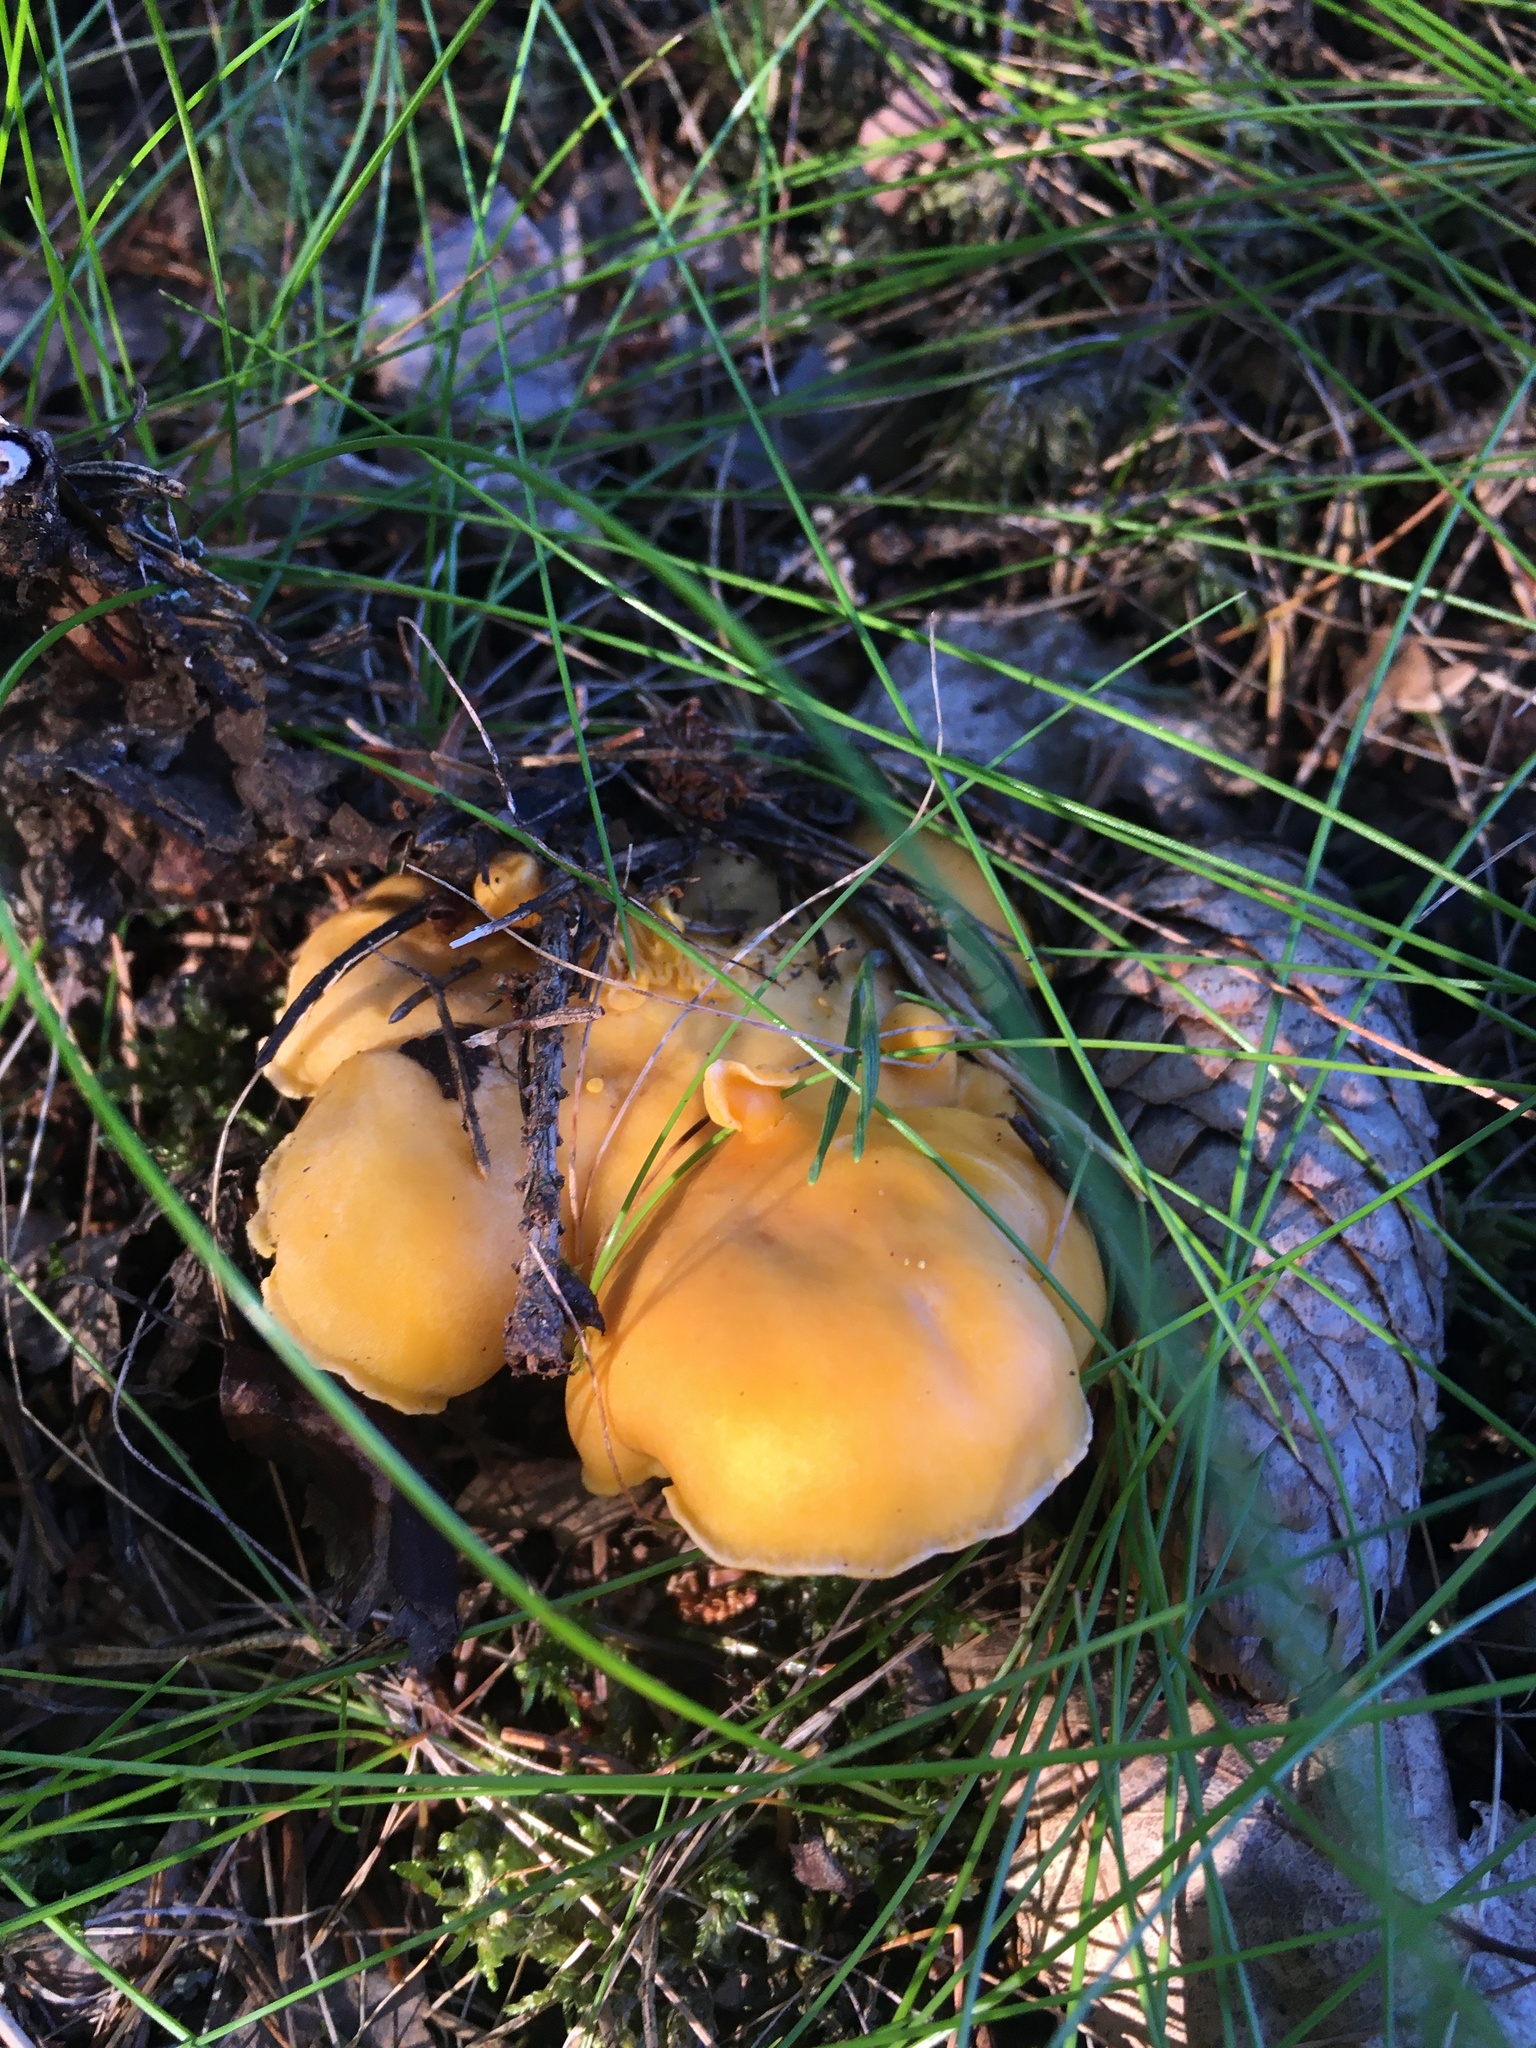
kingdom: Fungi
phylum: Basidiomycota
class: Agaricomycetes
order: Cantharellales
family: Hydnaceae
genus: Cantharellus
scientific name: Cantharellus cibarius
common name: Chanterelle
